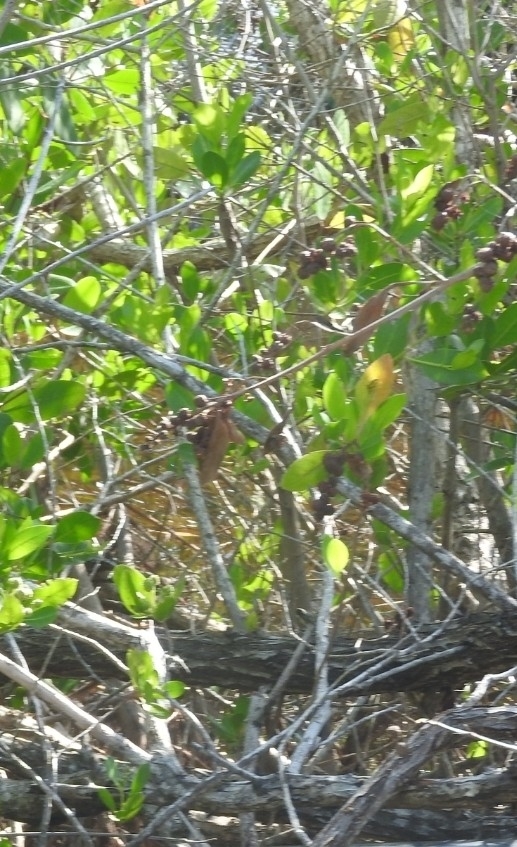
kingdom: Plantae
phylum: Tracheophyta
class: Magnoliopsida
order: Myrtales
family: Combretaceae
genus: Conocarpus
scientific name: Conocarpus erectus
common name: Button mangrove
